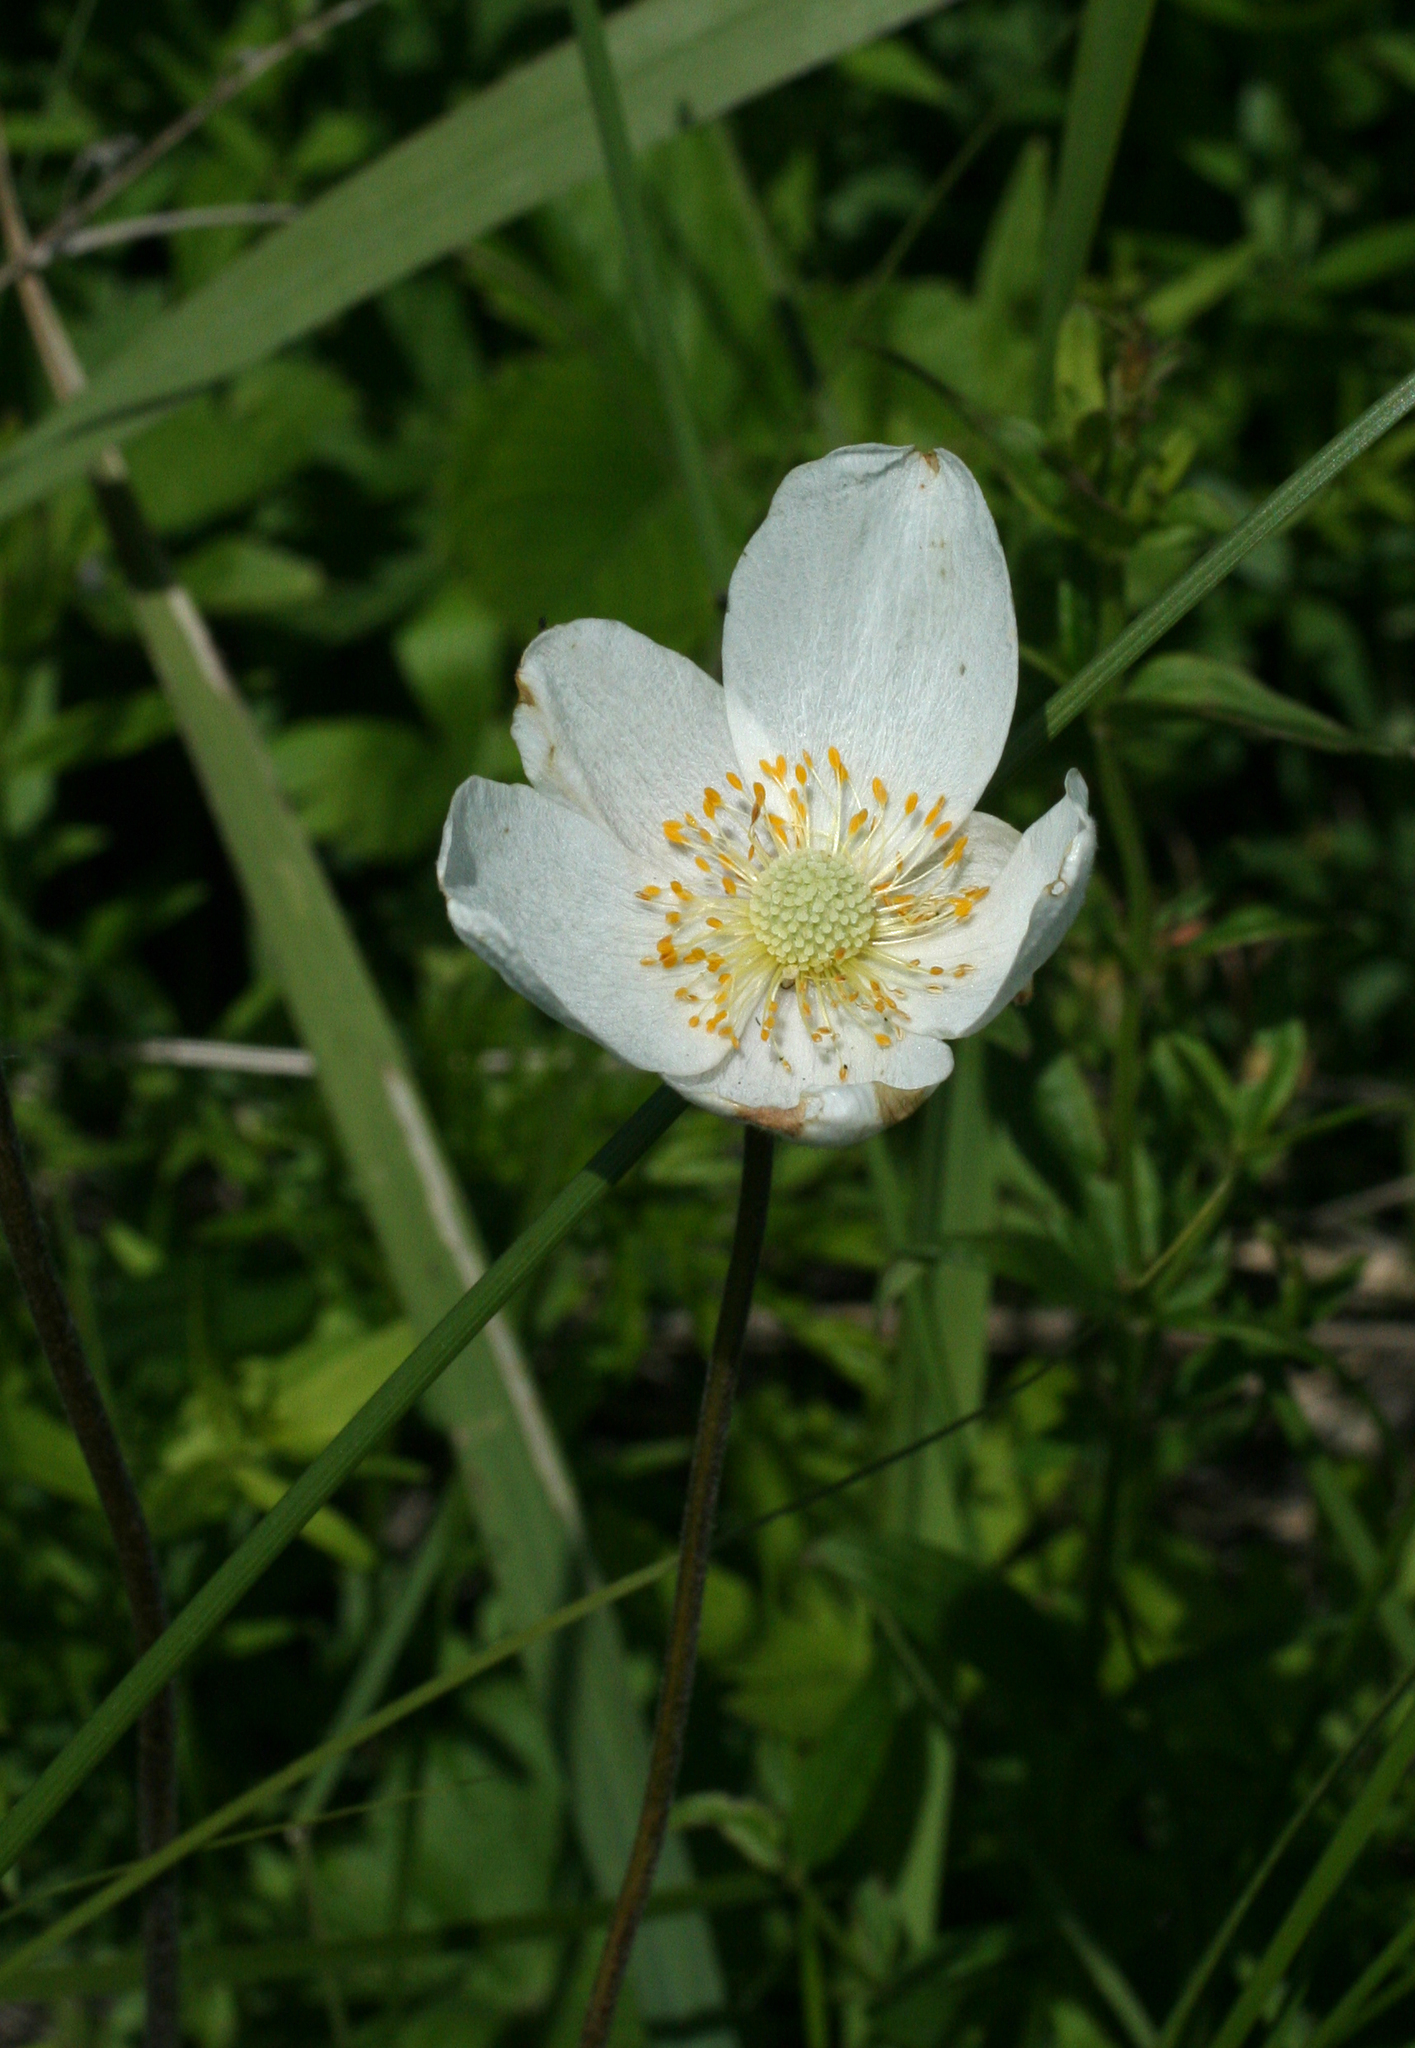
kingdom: Plantae
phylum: Tracheophyta
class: Magnoliopsida
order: Ranunculales
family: Ranunculaceae
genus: Anemone
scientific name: Anemone sylvestris
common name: Snowdrop anemone
